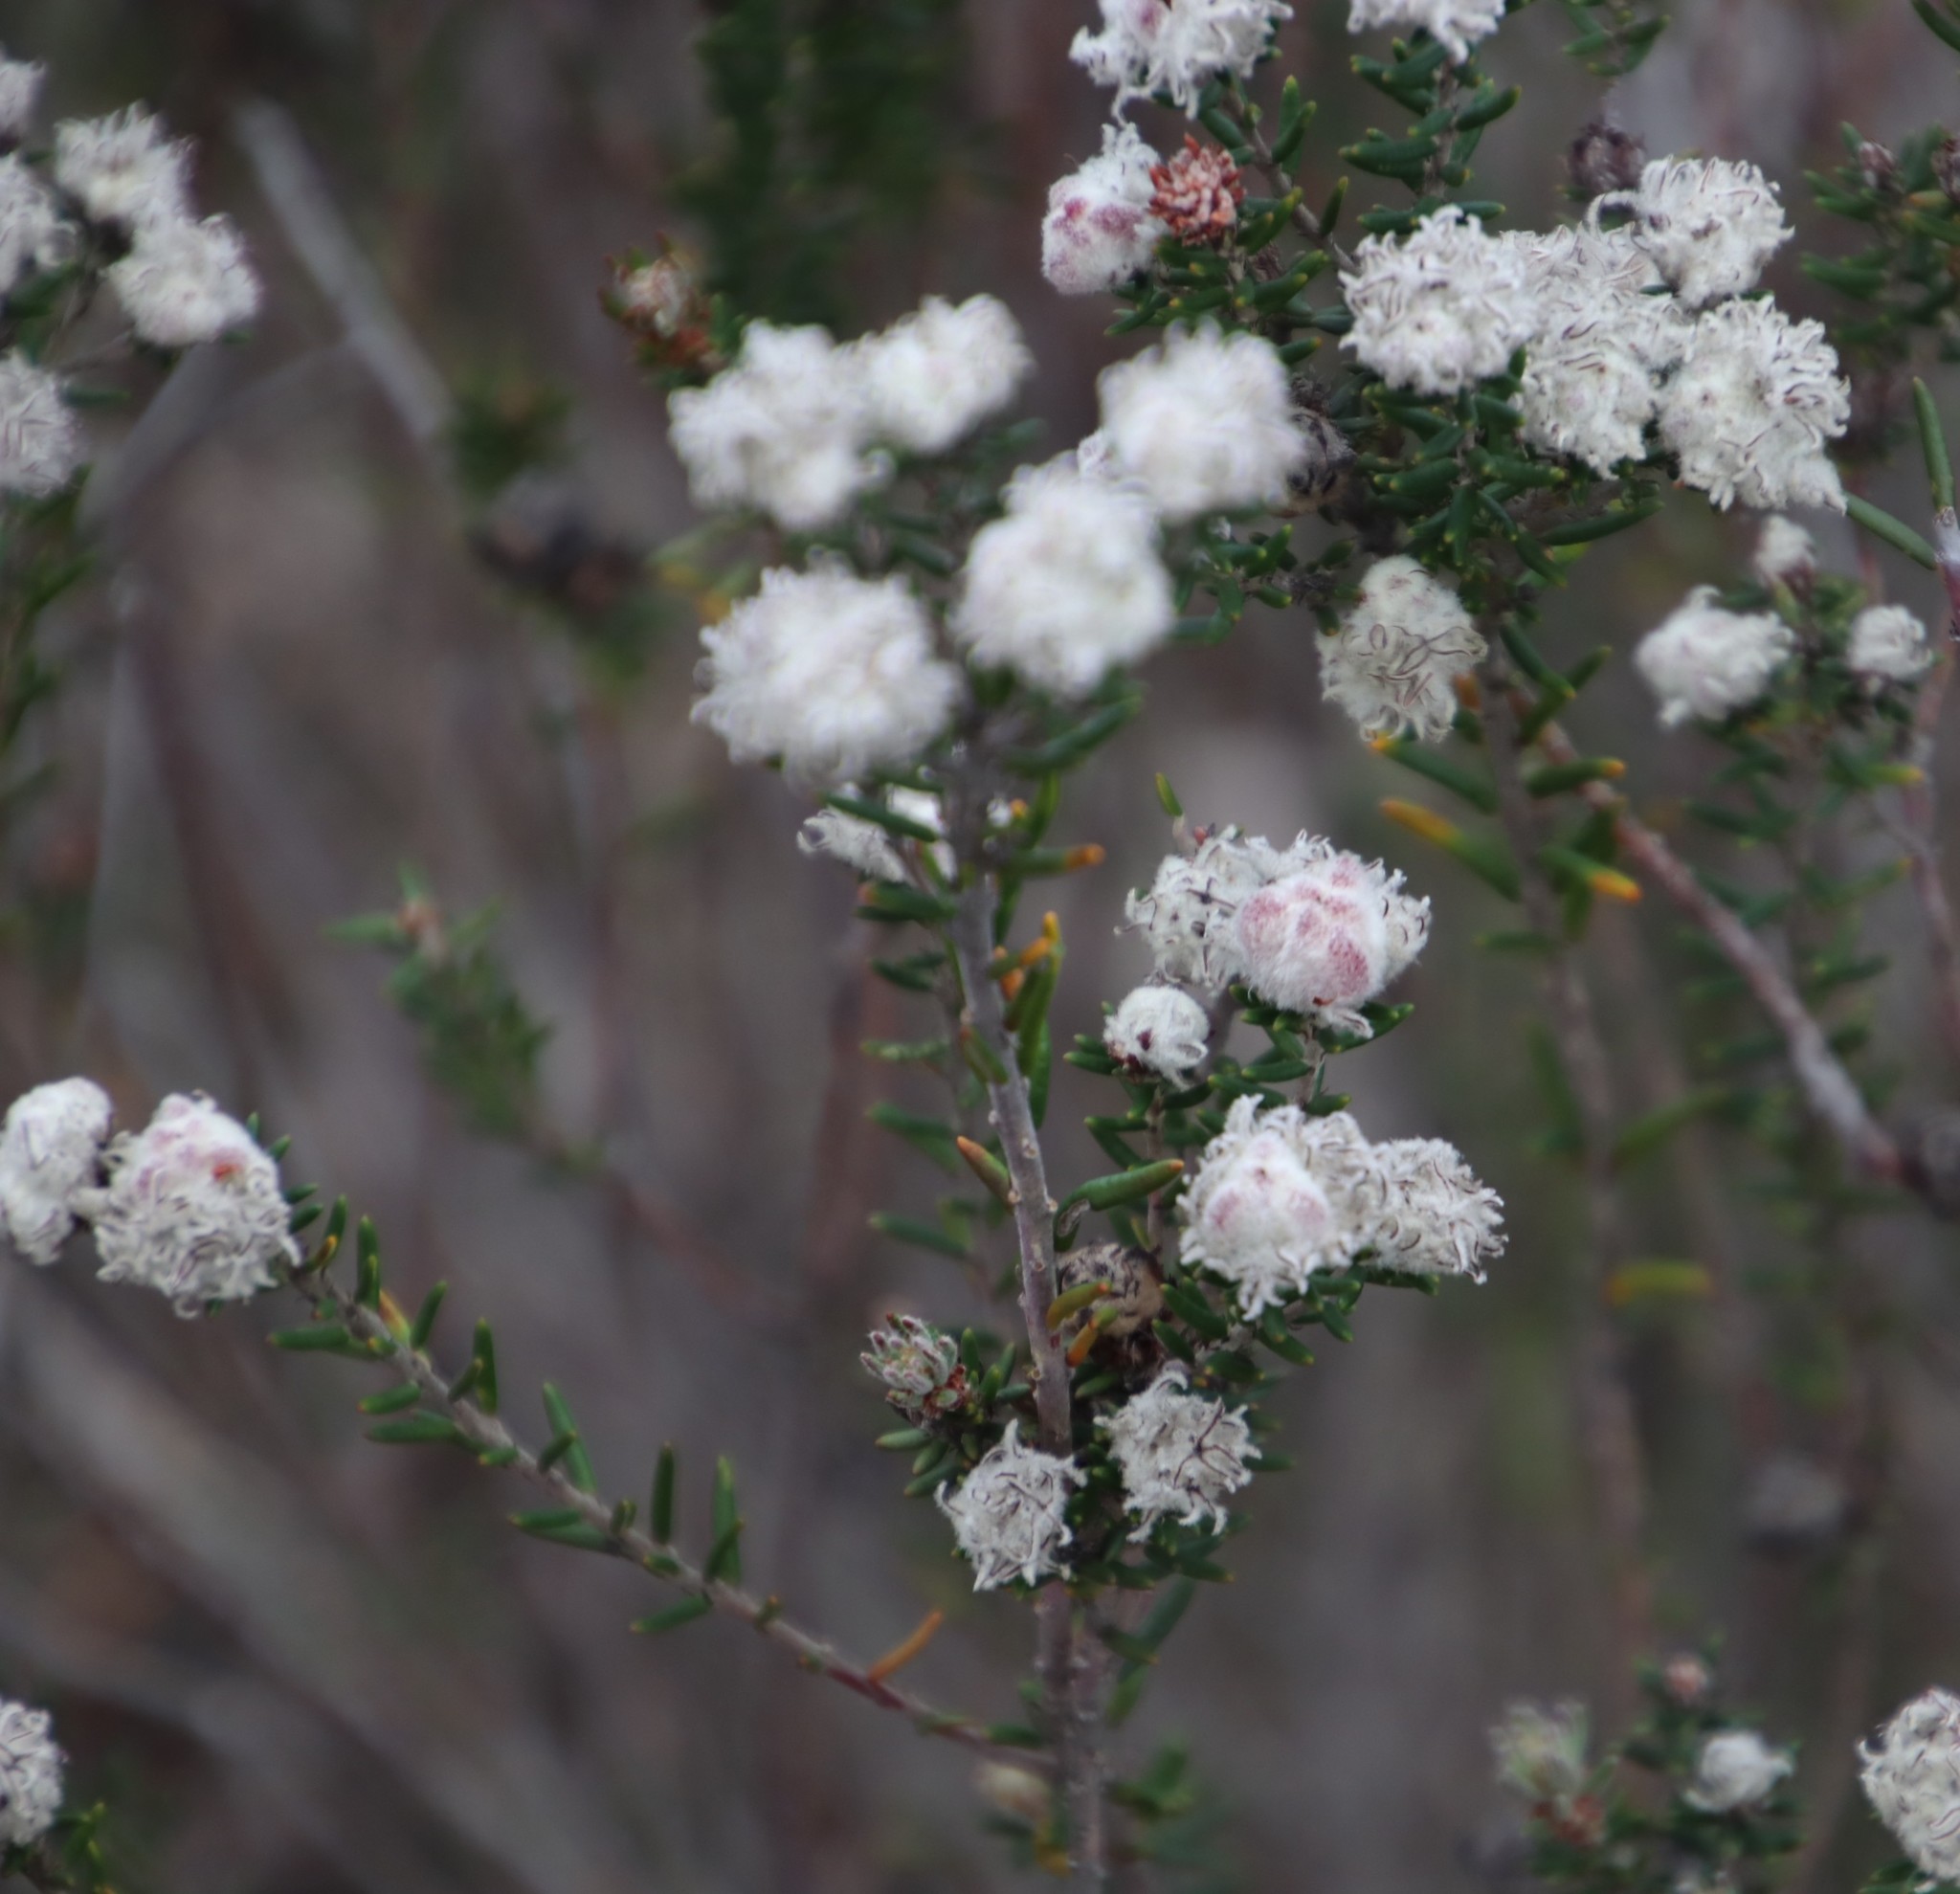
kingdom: Plantae
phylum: Tracheophyta
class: Magnoliopsida
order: Rosales
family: Rhamnaceae
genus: Trichocephalus
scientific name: Trichocephalus stipularis
